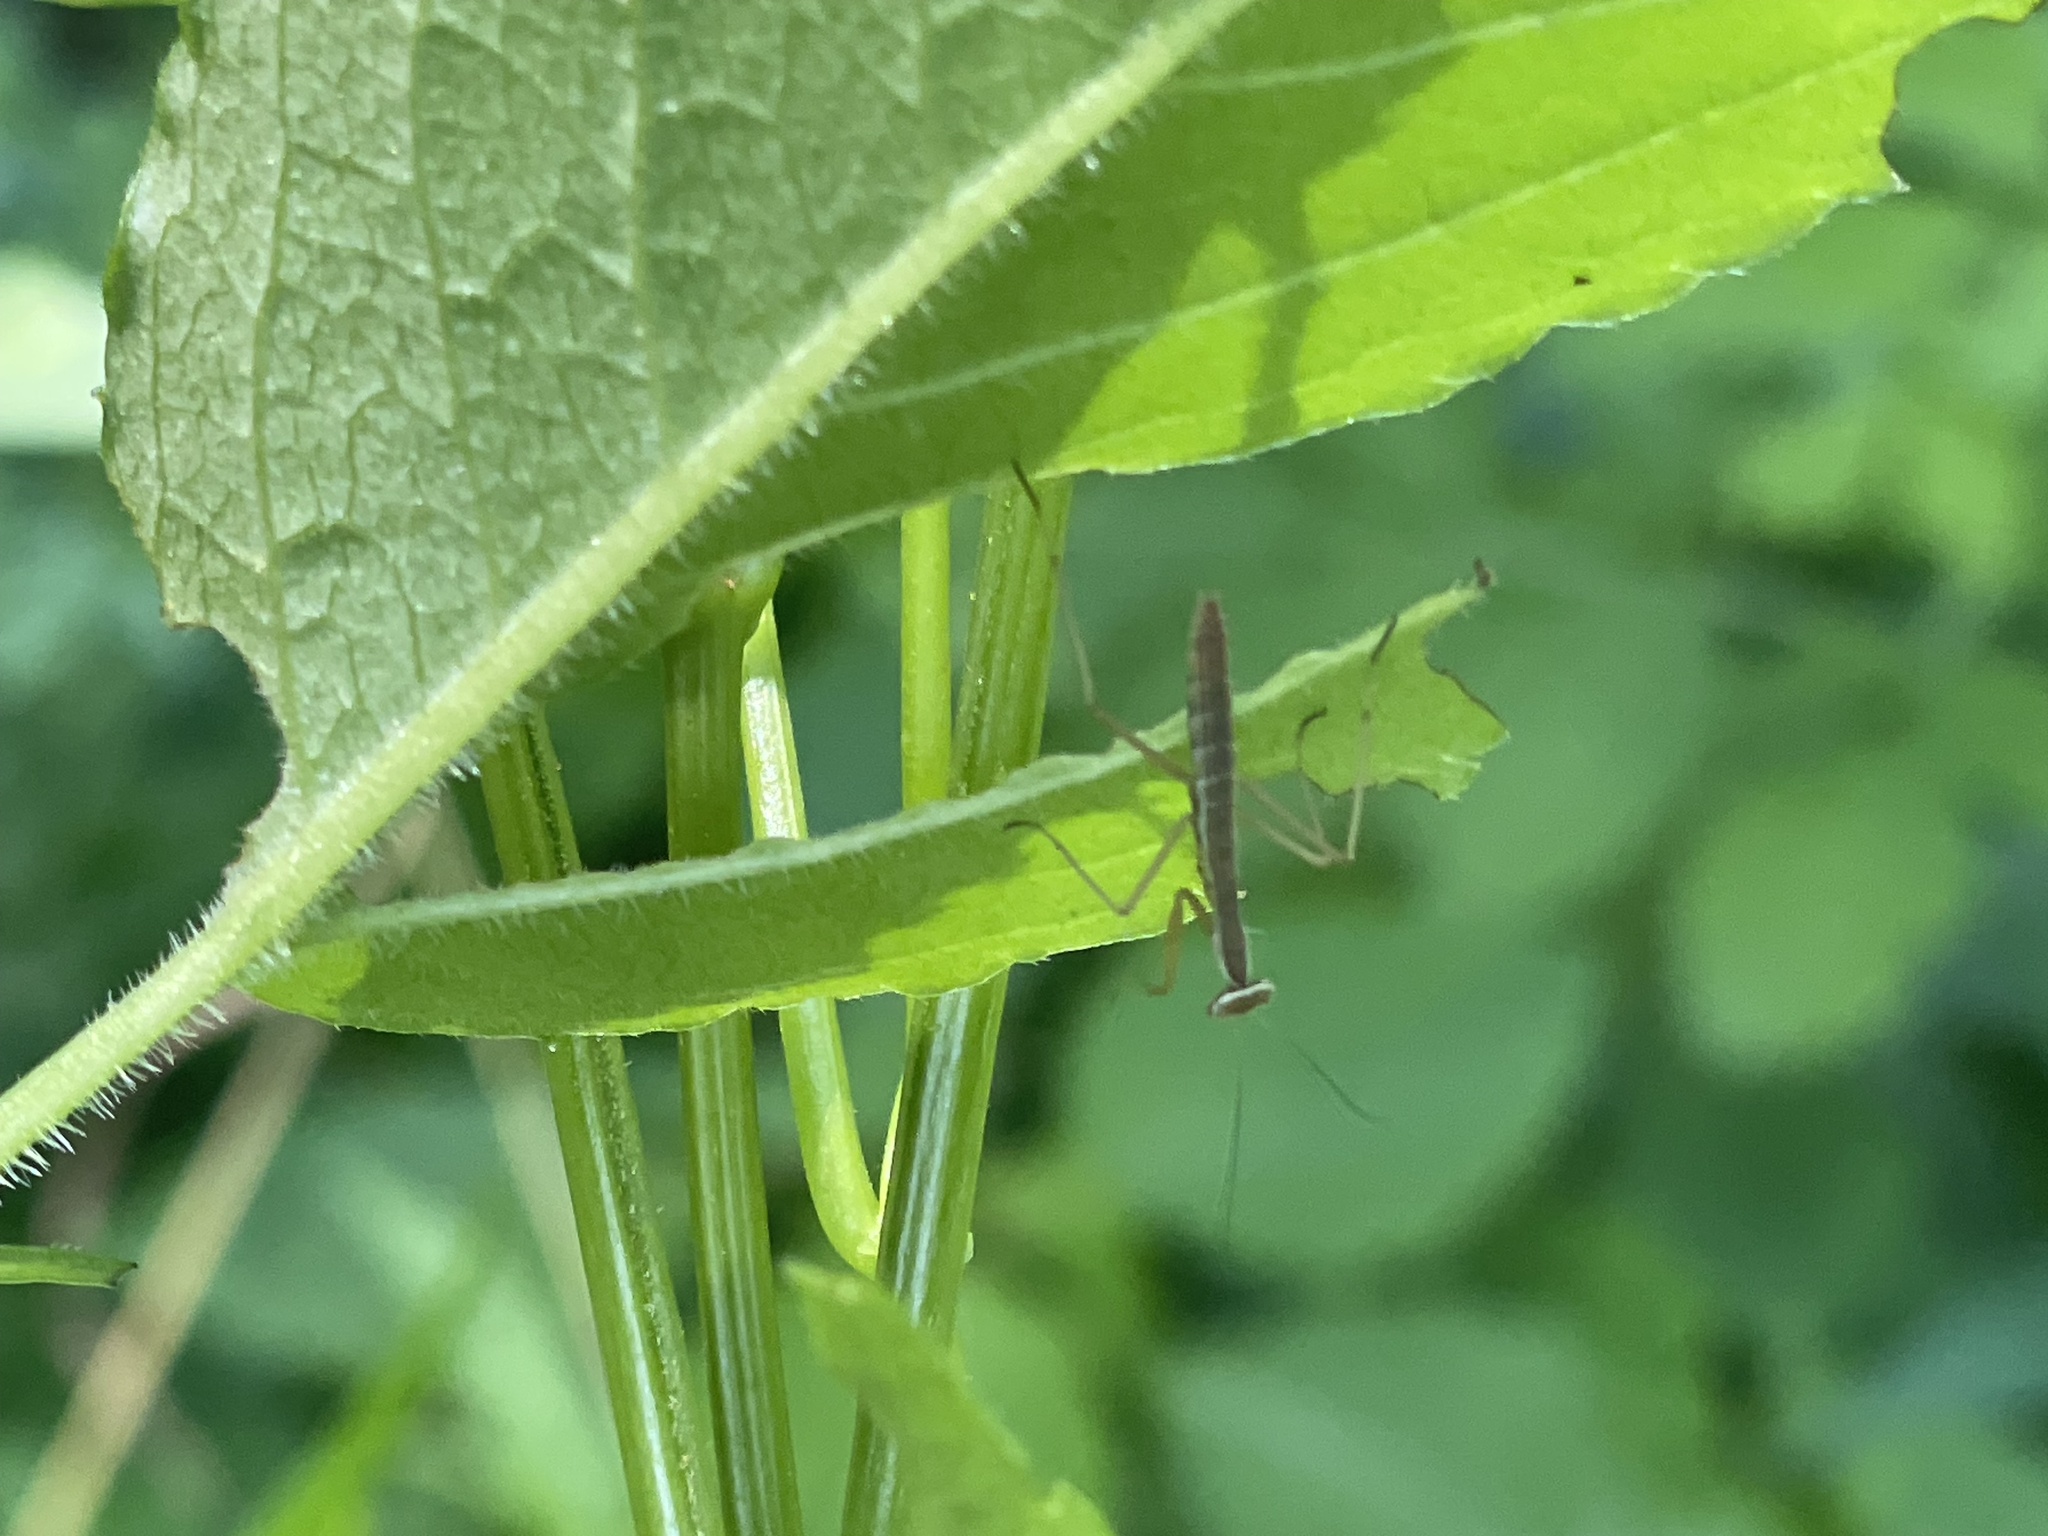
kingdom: Animalia
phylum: Arthropoda
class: Insecta
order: Mantodea
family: Mantidae
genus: Tenodera
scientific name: Tenodera sinensis
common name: Chinese mantis
